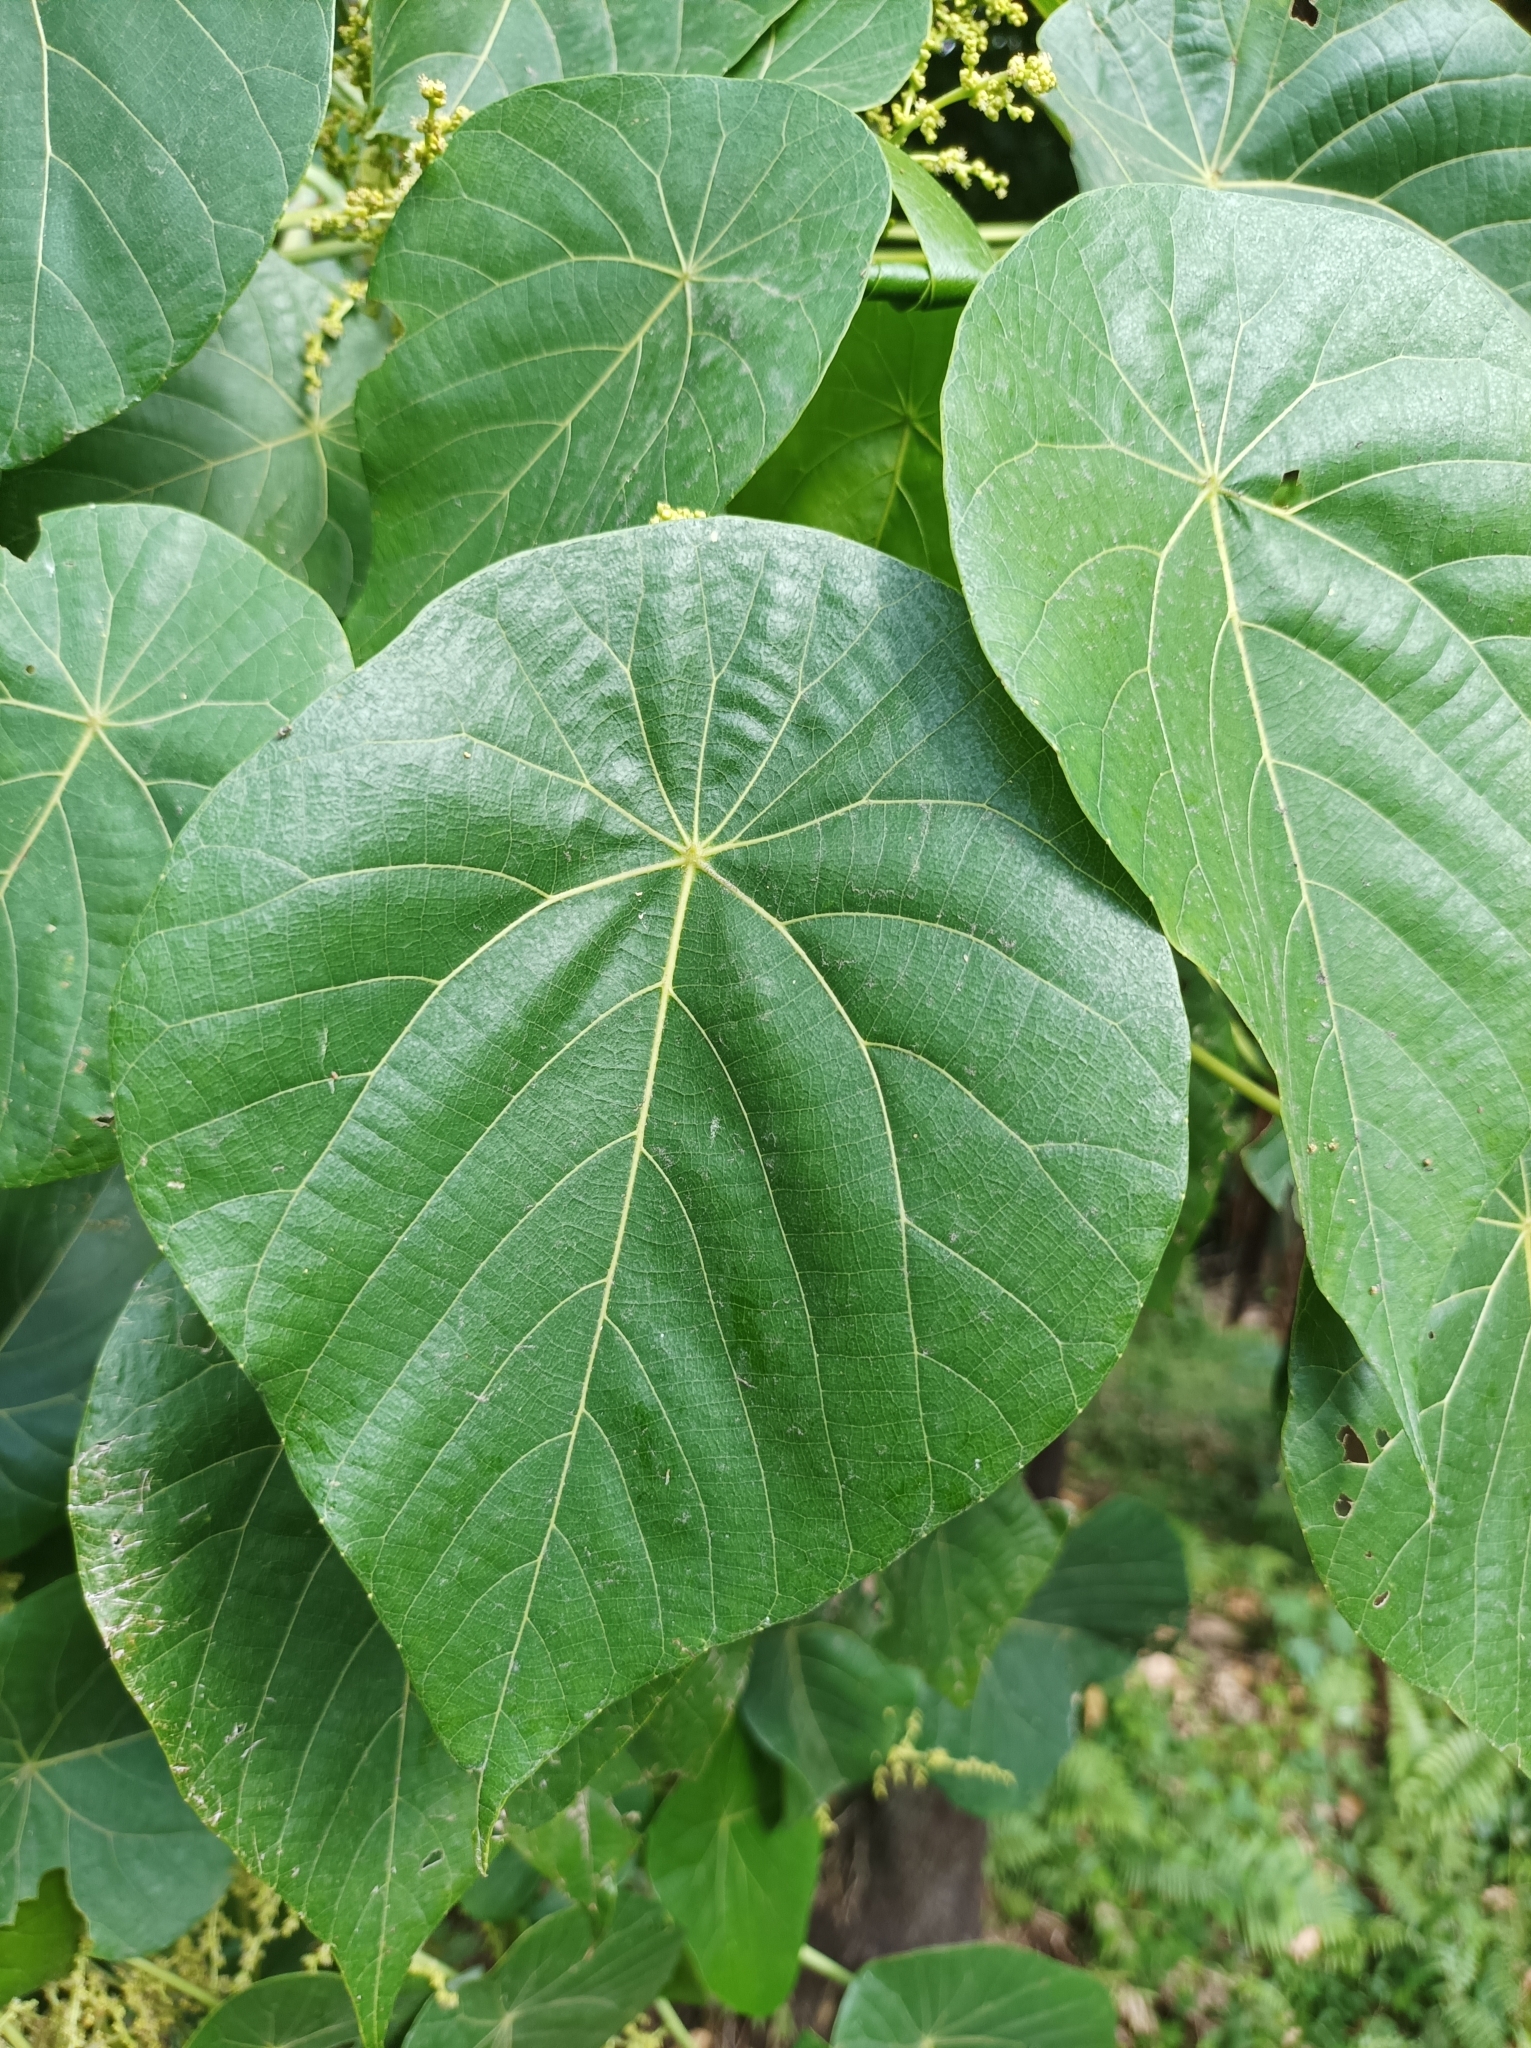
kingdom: Plantae
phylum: Tracheophyta
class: Magnoliopsida
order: Malpighiales
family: Euphorbiaceae
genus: Macaranga
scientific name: Macaranga tanarius
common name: Parasol leaf tree
